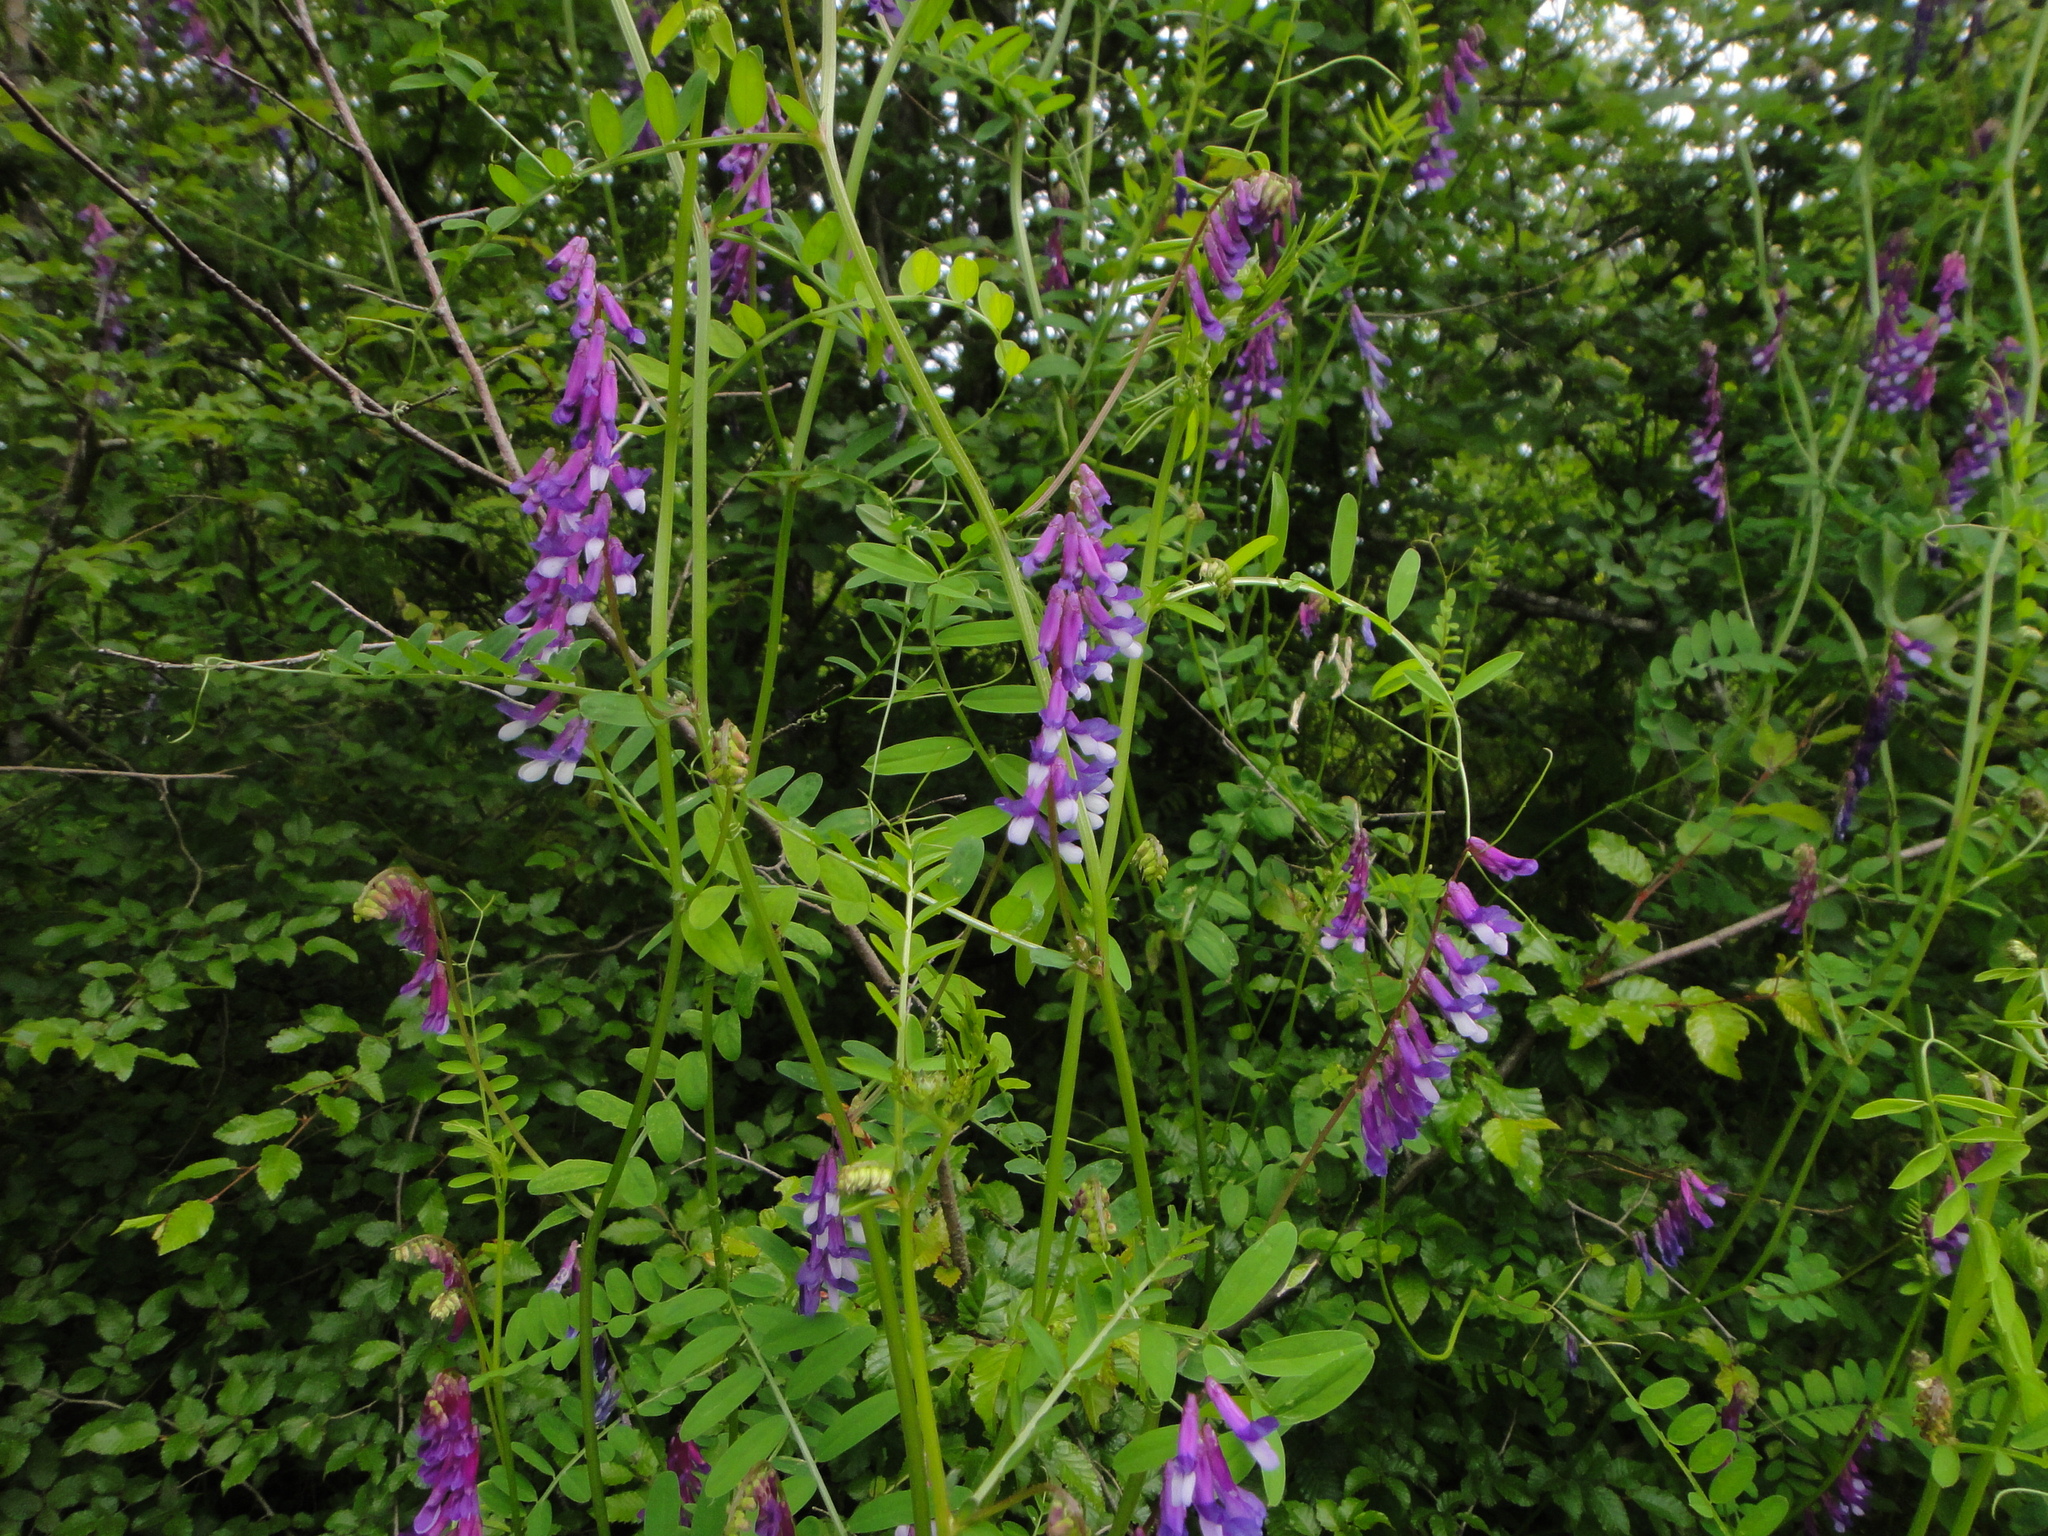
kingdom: Plantae
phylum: Tracheophyta
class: Magnoliopsida
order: Fabales
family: Fabaceae
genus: Vicia
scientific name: Vicia villosa
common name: Fodder vetch
